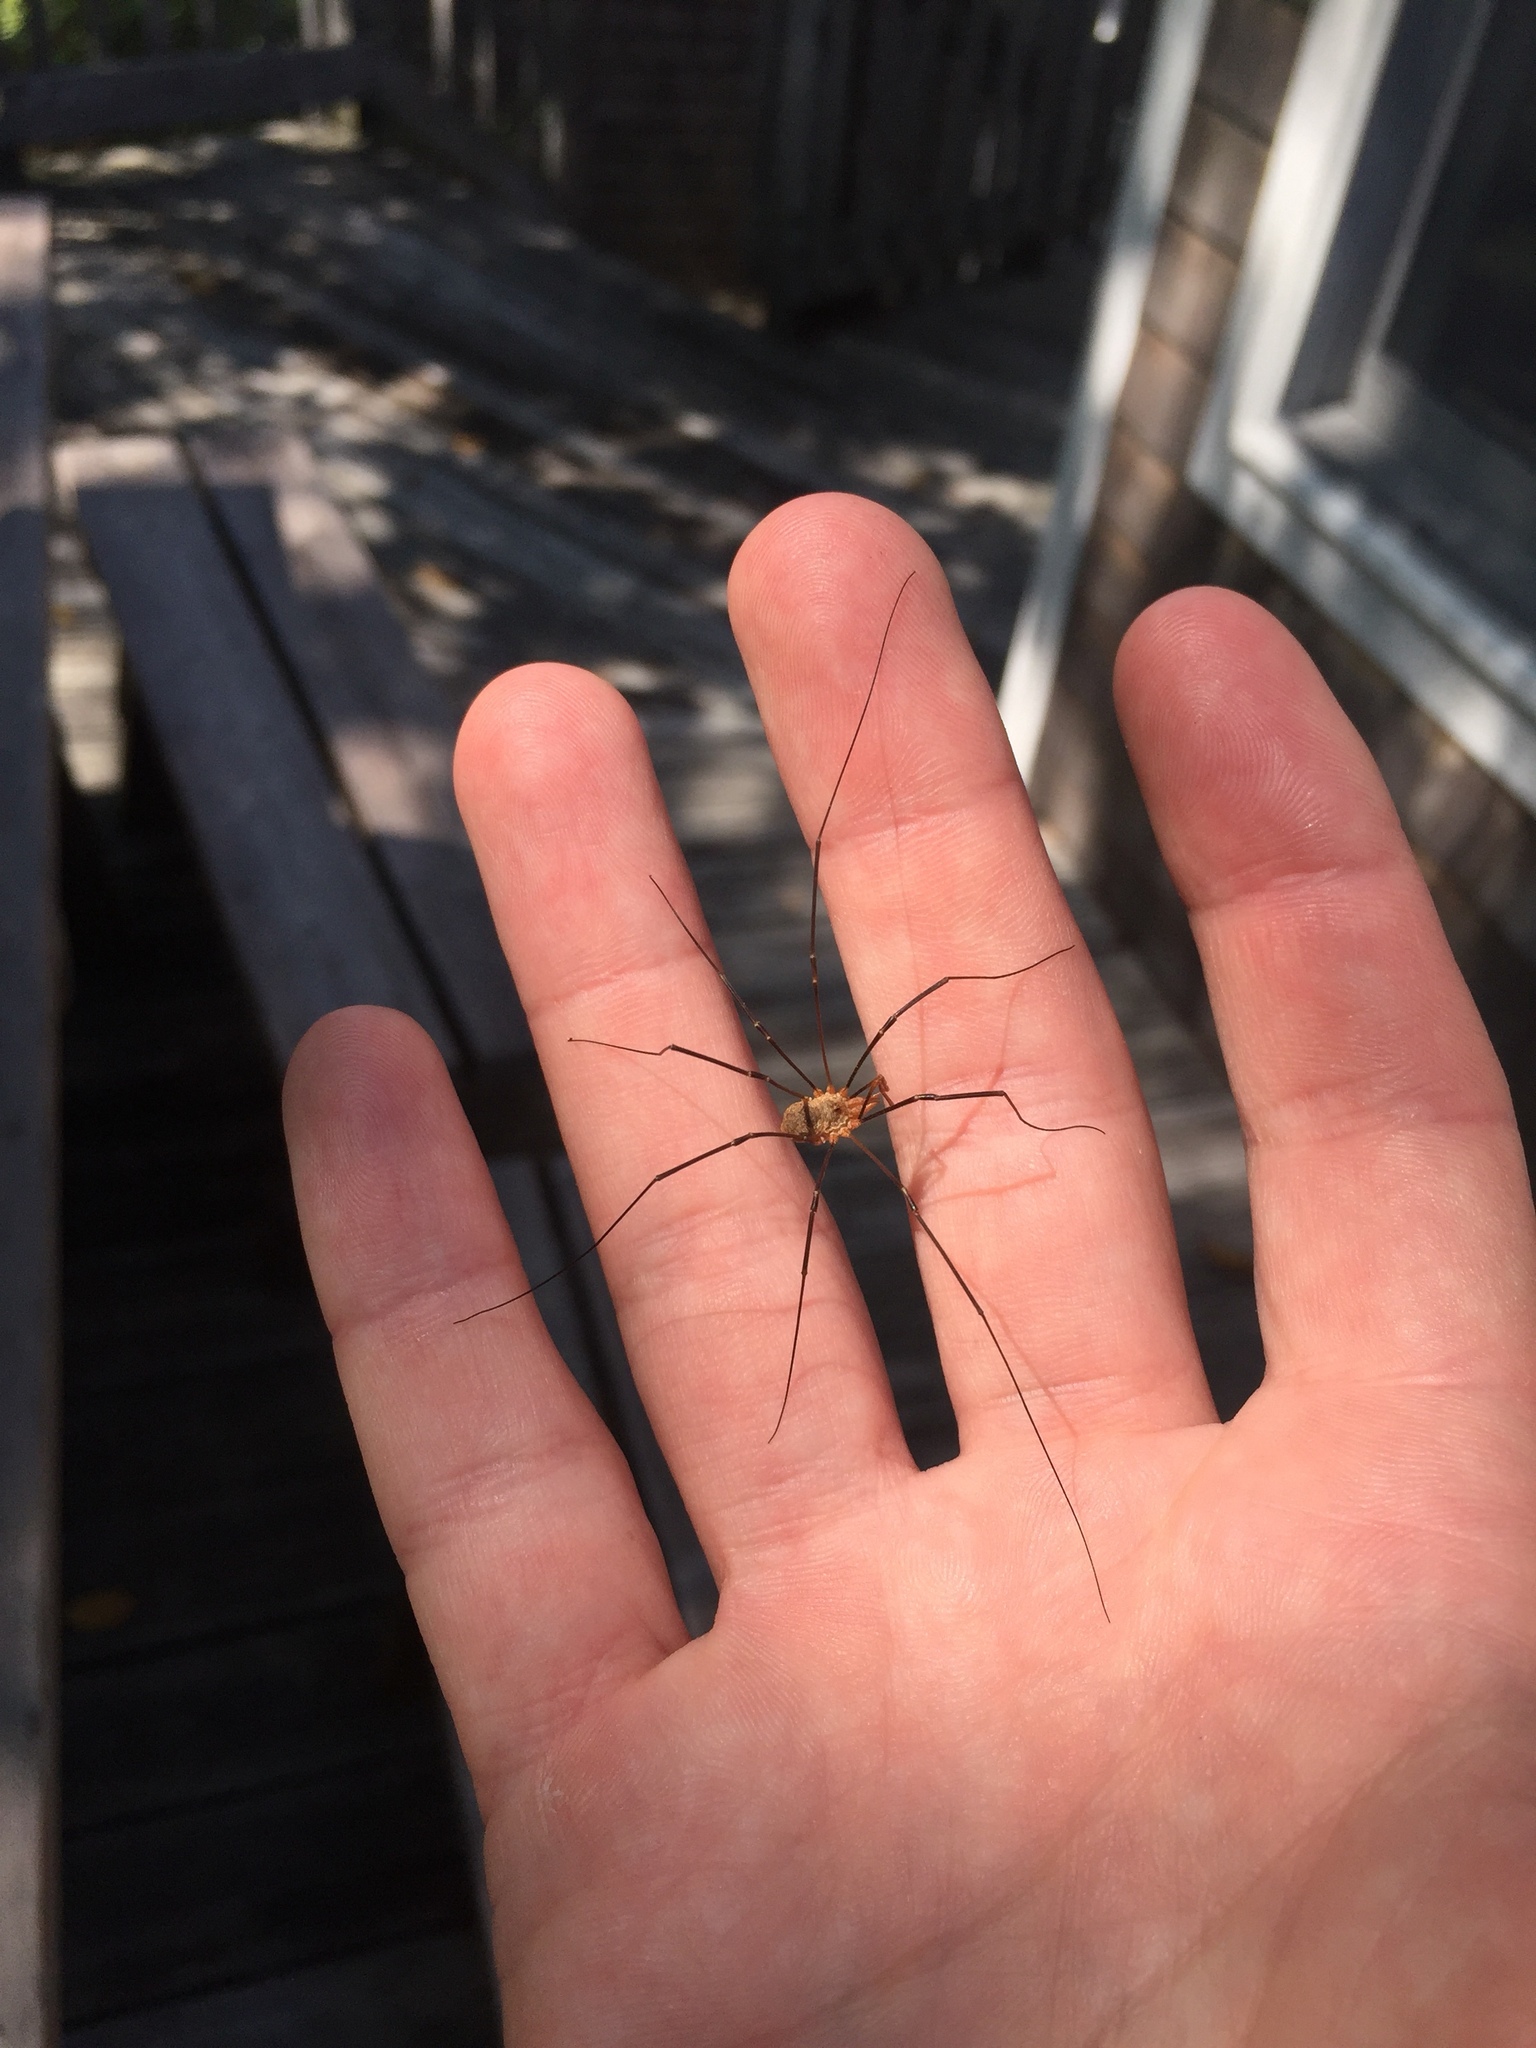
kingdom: Animalia
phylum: Arthropoda
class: Arachnida
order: Opiliones
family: Phalangiidae
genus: Phalangium
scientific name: Phalangium opilio
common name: Daddy longleg
